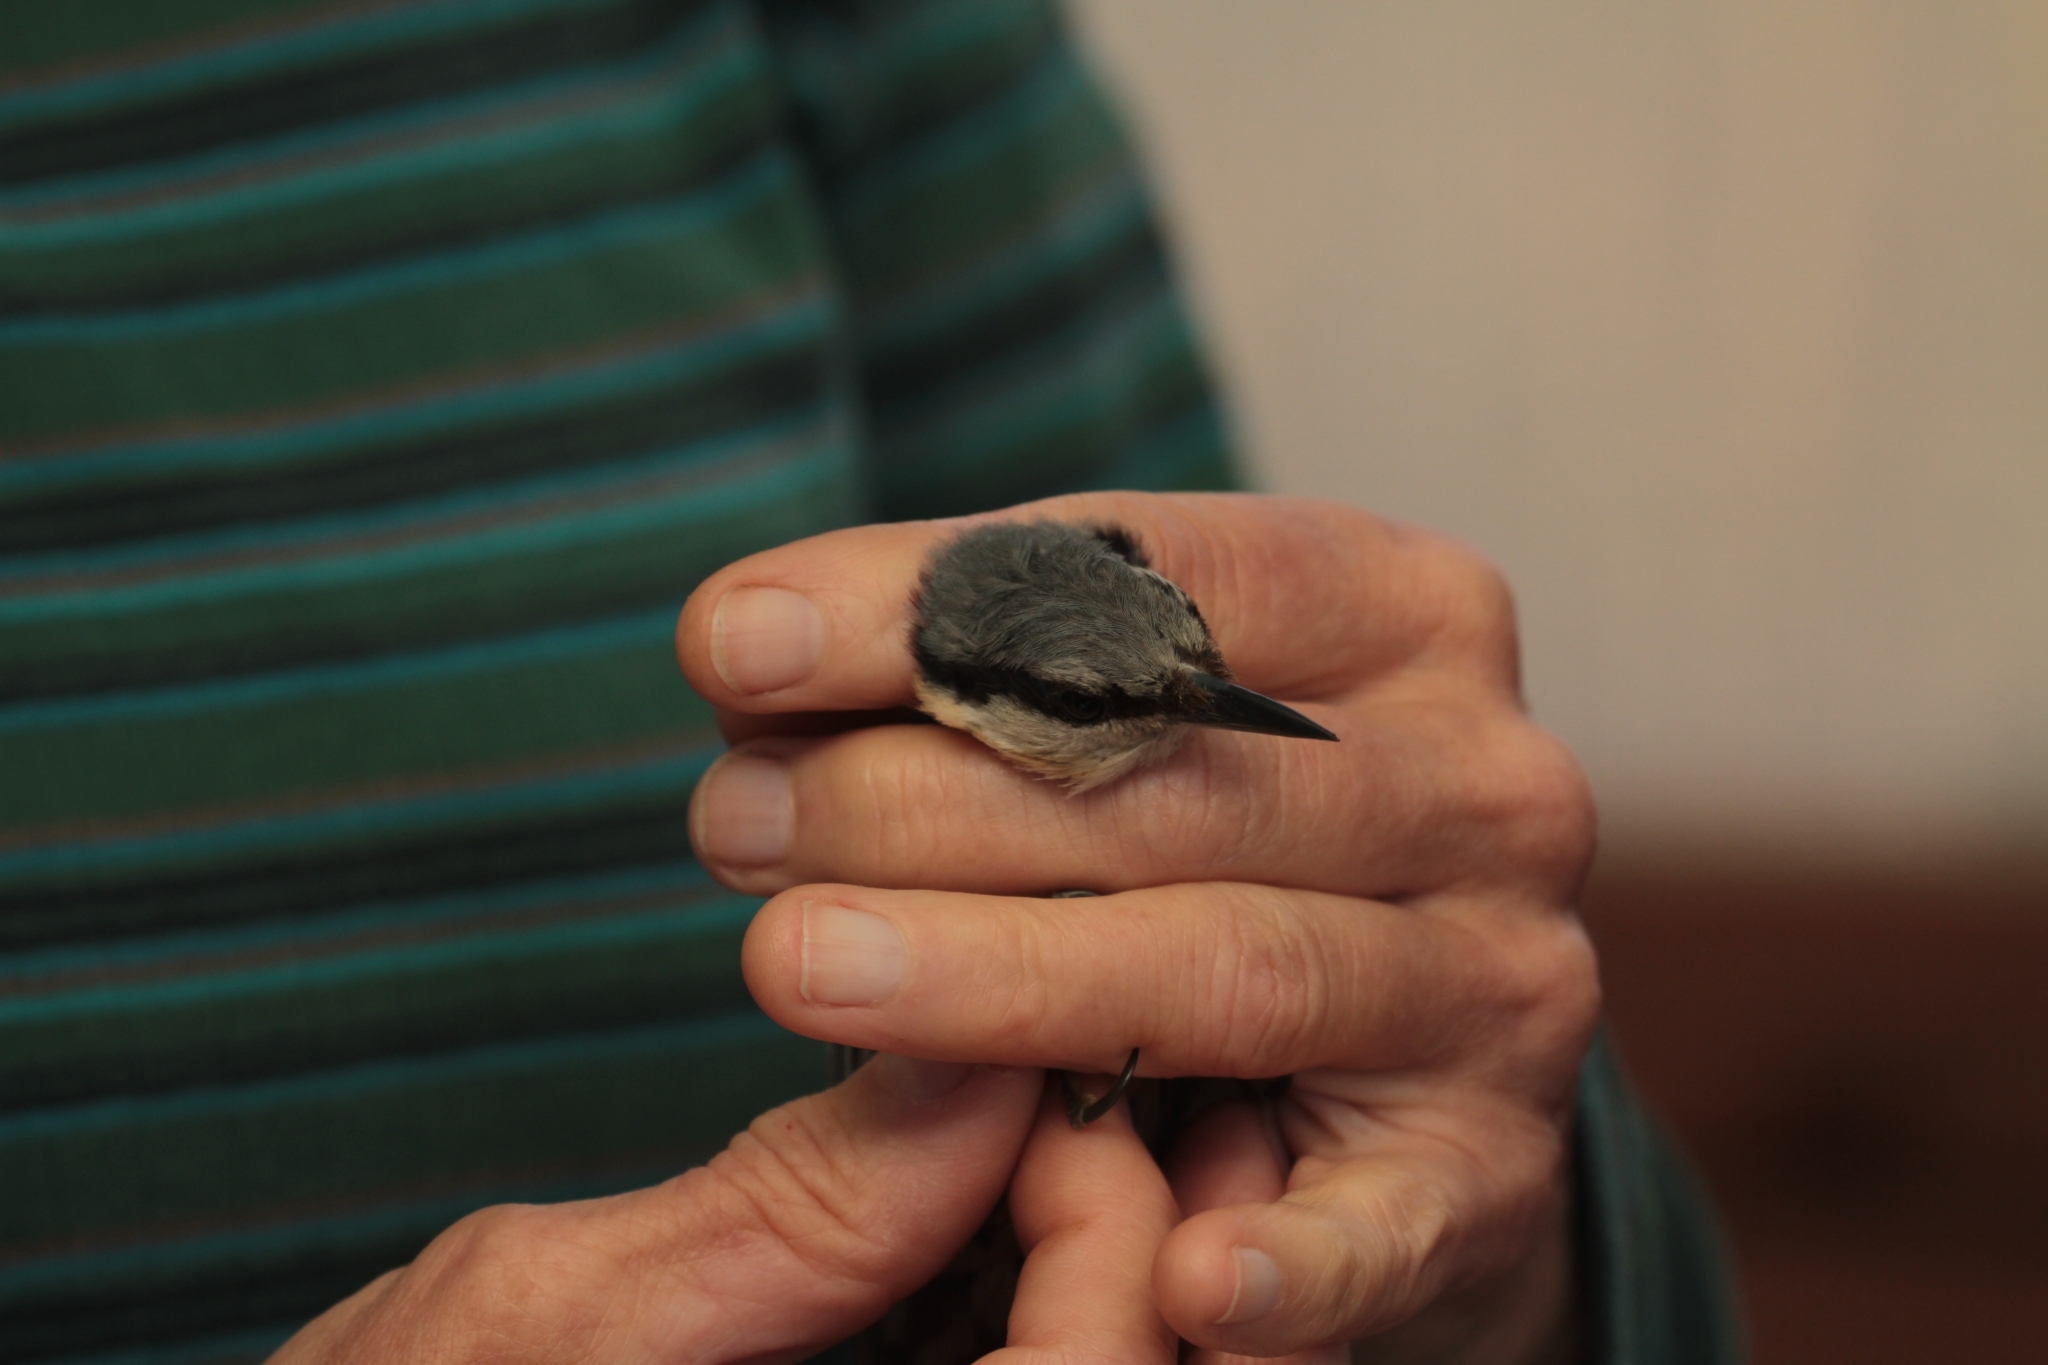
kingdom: Animalia
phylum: Chordata
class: Aves
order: Passeriformes
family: Sittidae
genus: Sitta
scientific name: Sitta europaea
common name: Eurasian nuthatch
